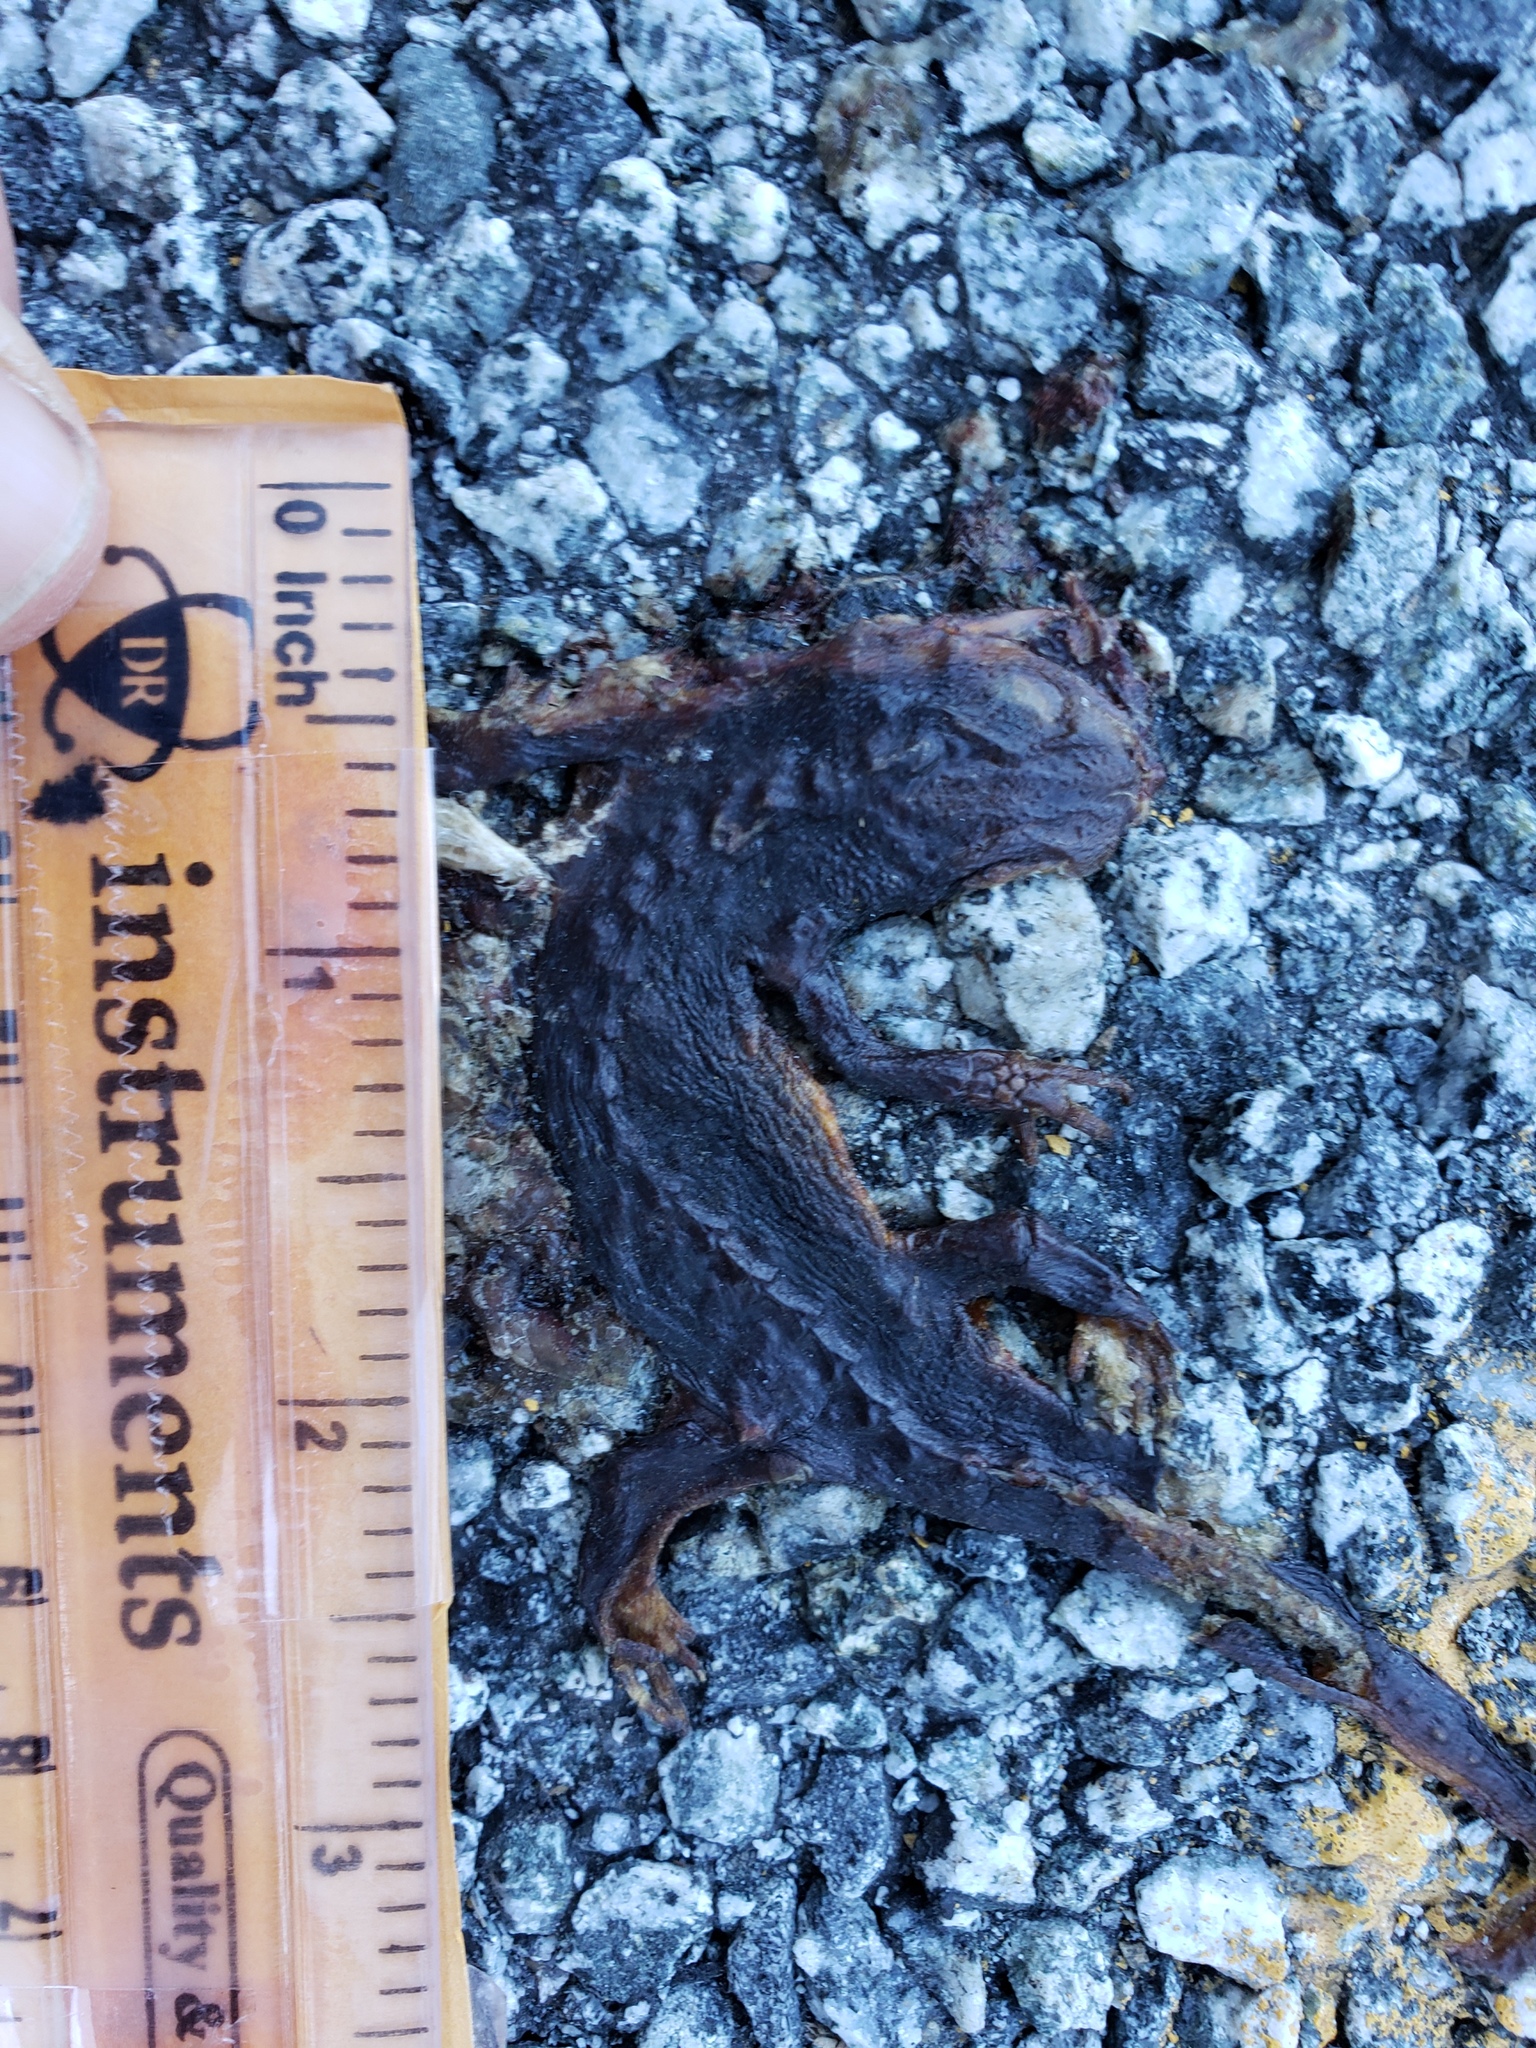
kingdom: Animalia
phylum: Chordata
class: Amphibia
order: Caudata
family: Salamandridae
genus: Taricha
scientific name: Taricha
